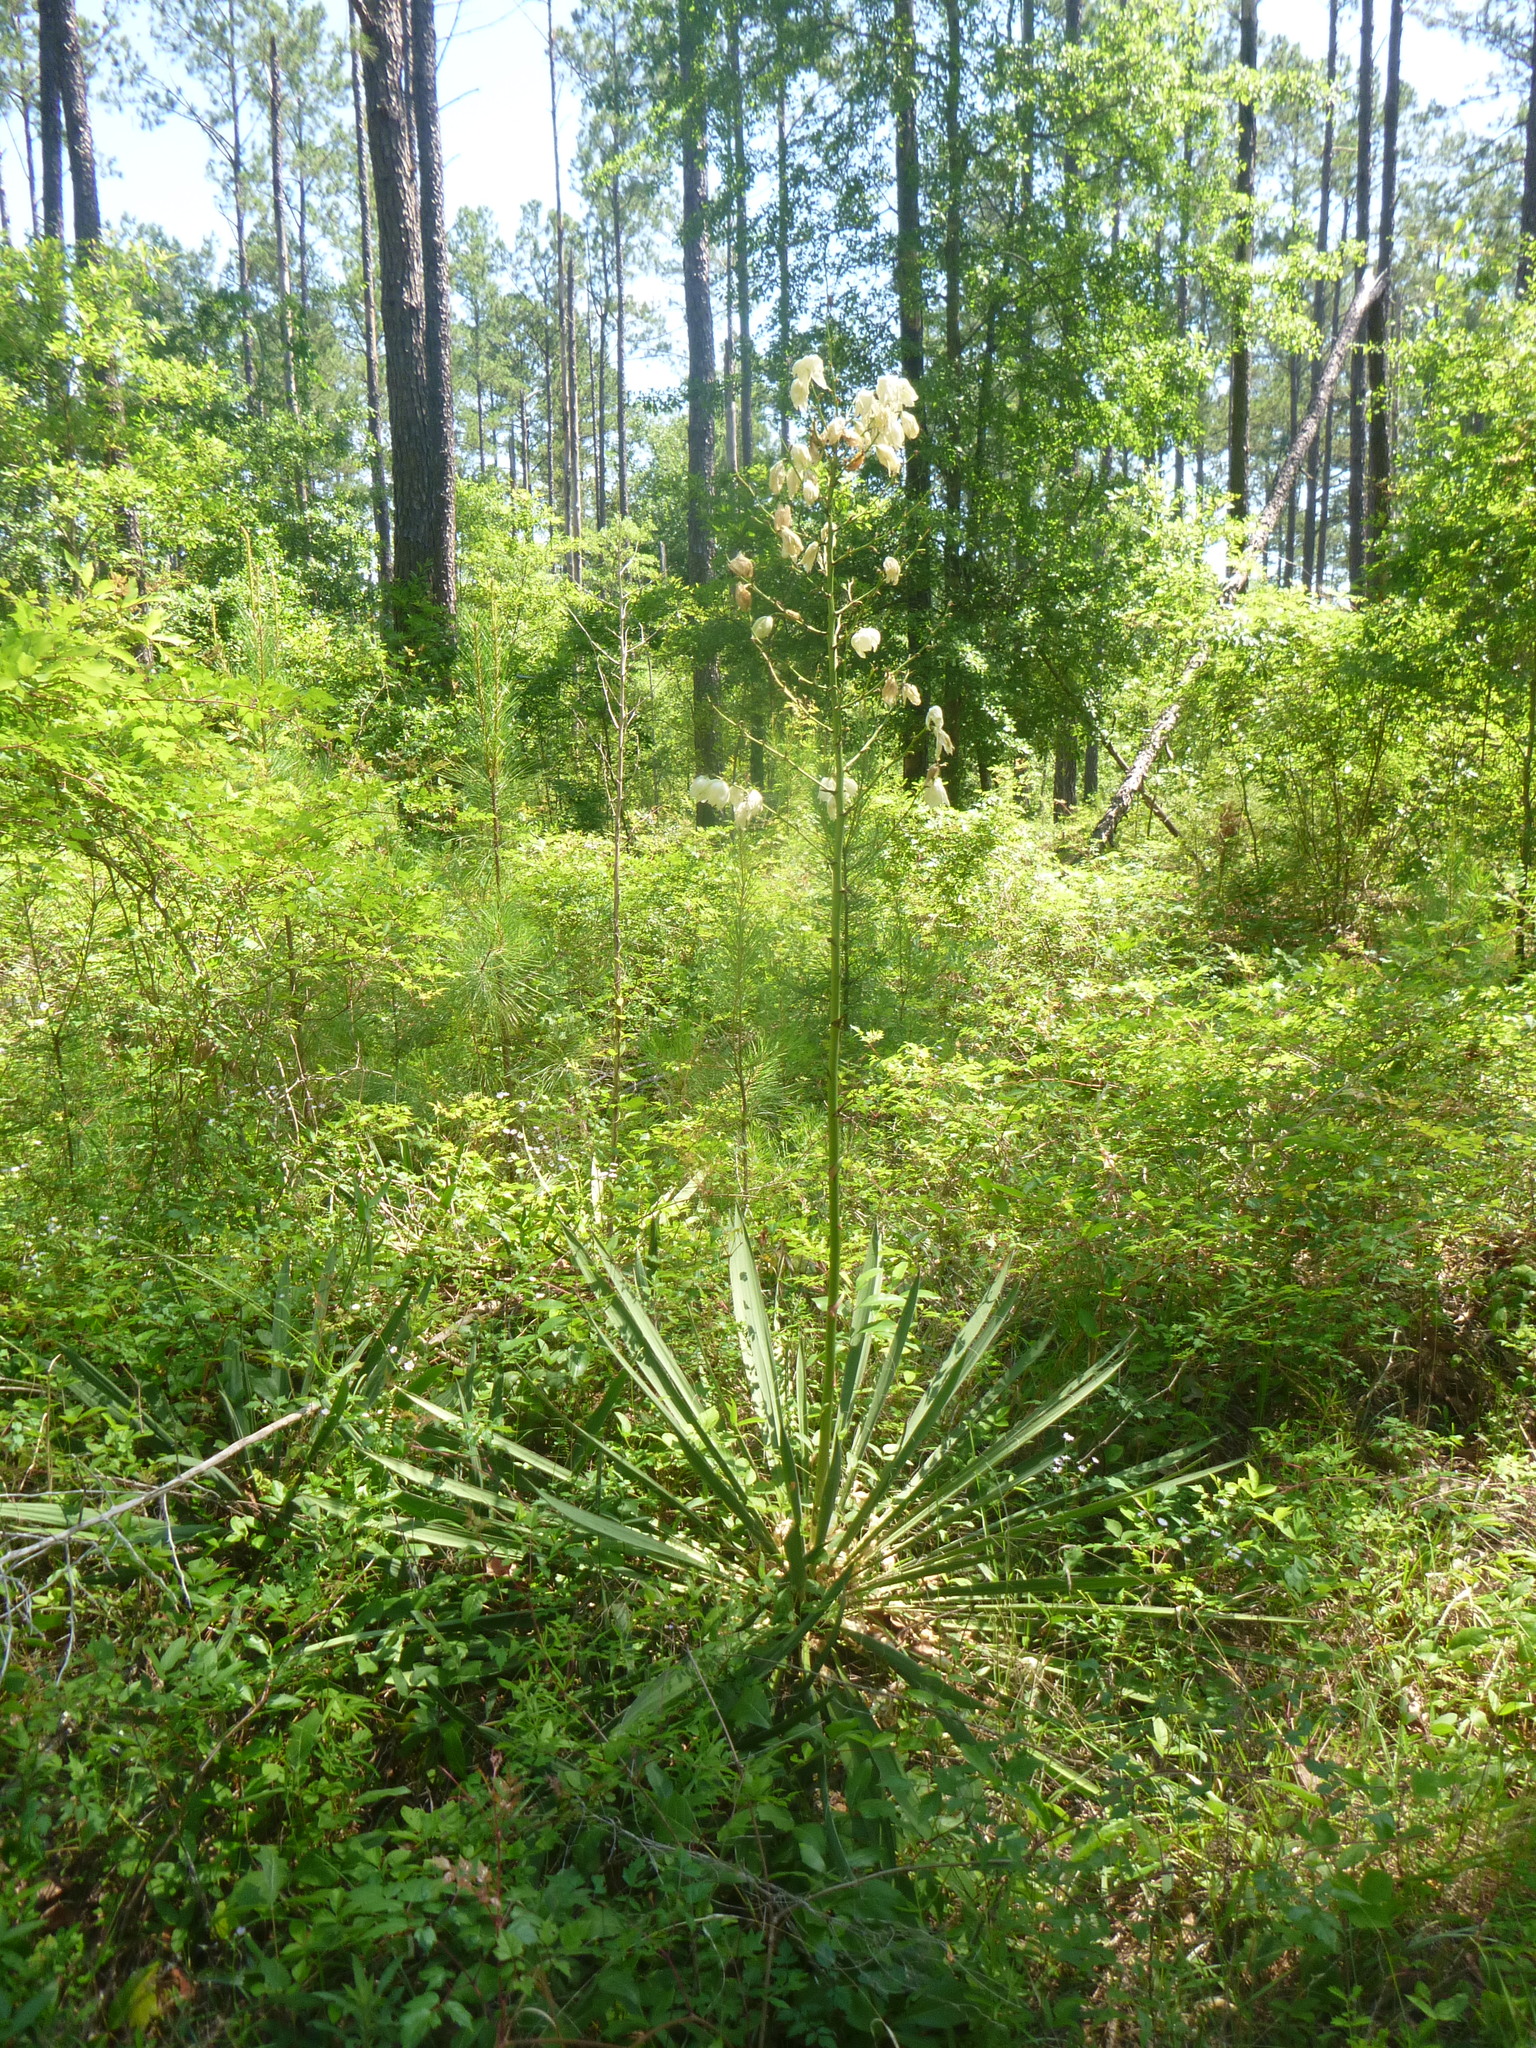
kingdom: Plantae
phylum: Tracheophyta
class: Liliopsida
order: Asparagales
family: Asparagaceae
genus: Yucca
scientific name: Yucca filamentosa
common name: Adam's-needle
